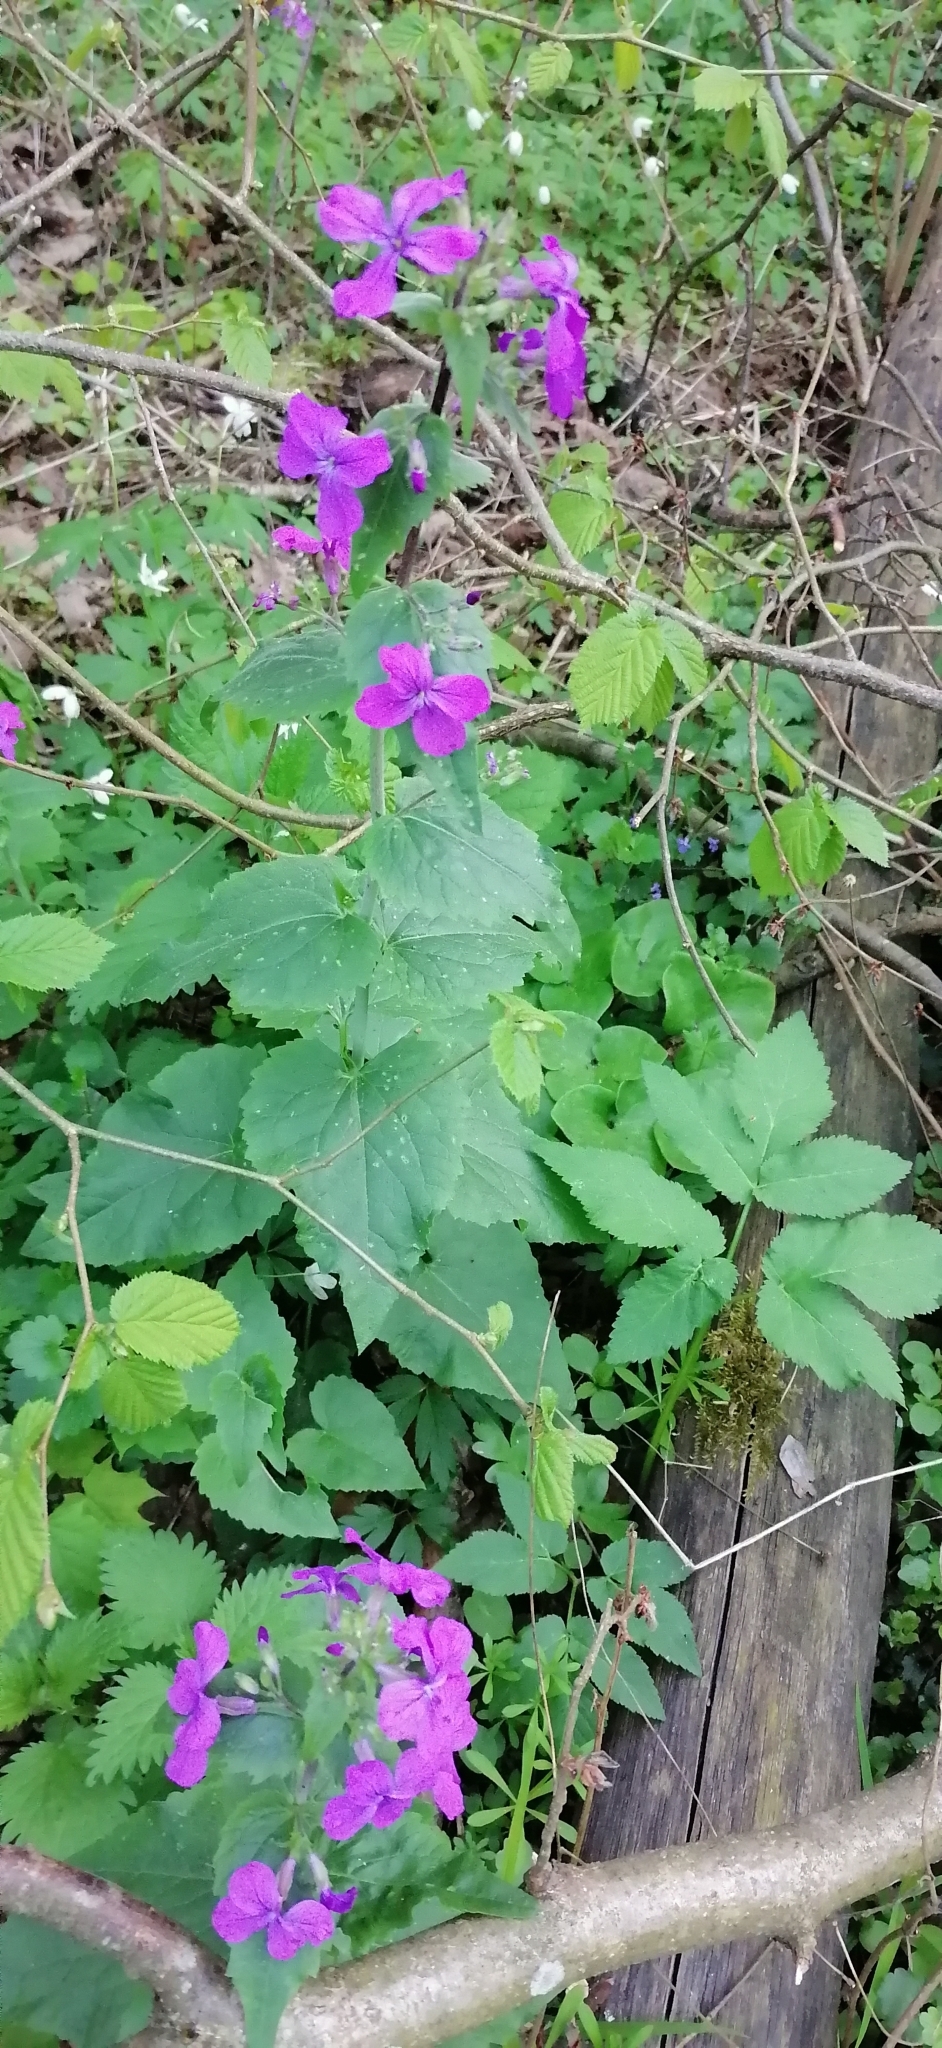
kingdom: Plantae
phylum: Tracheophyta
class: Magnoliopsida
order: Brassicales
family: Brassicaceae
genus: Lunaria
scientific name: Lunaria annua
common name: Honesty
